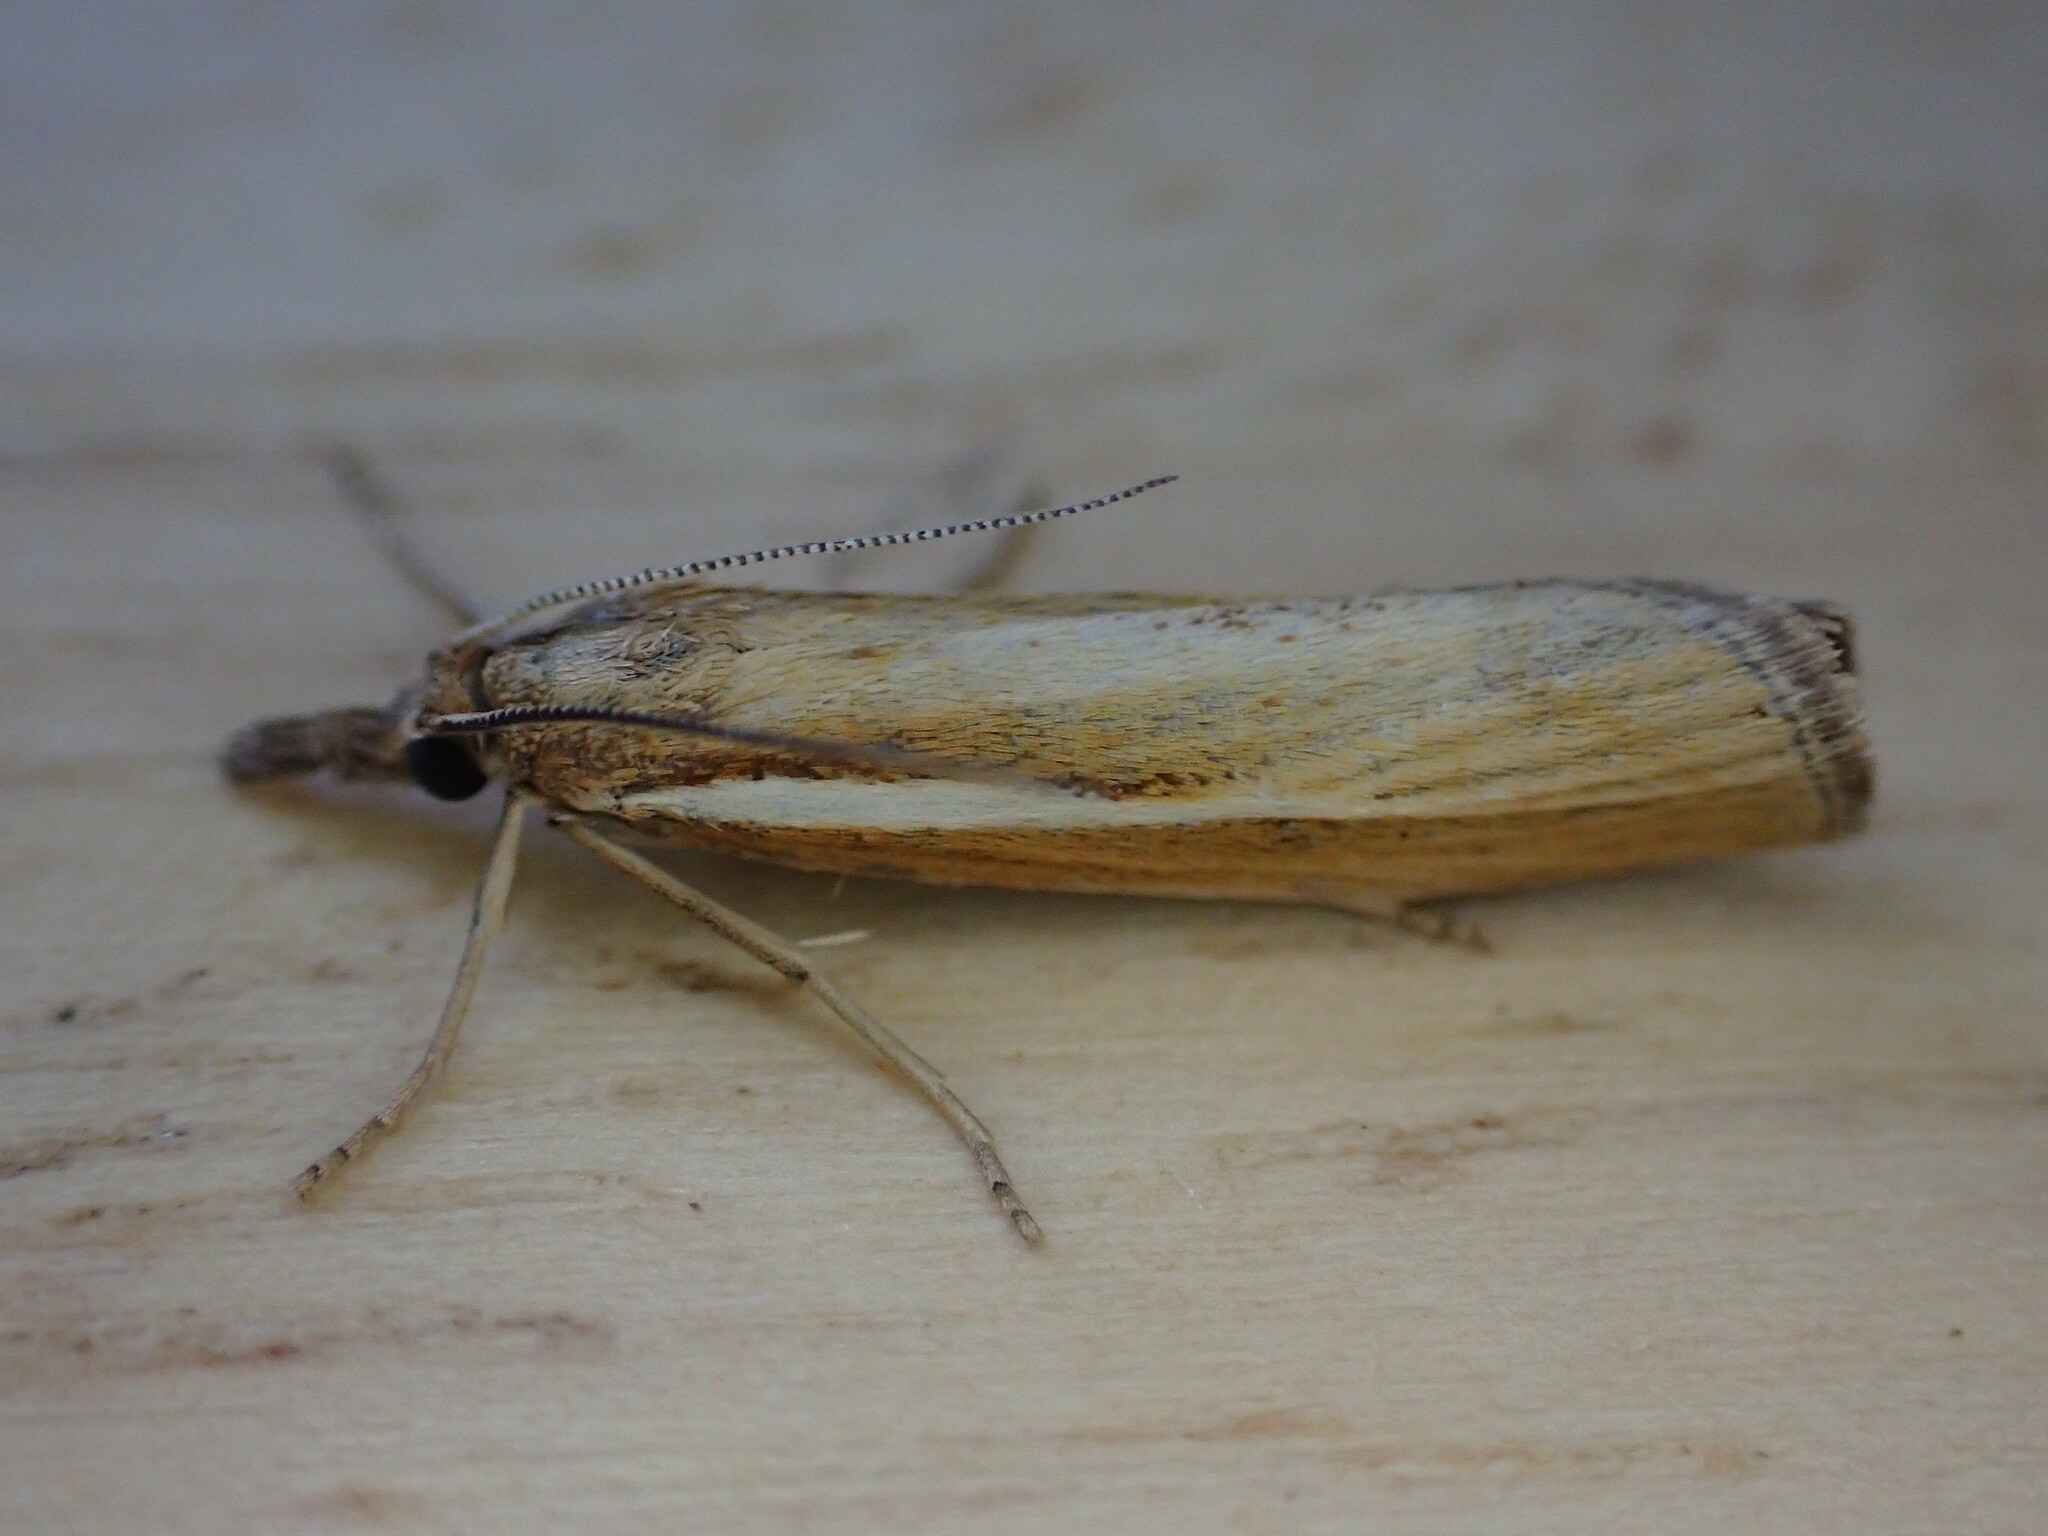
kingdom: Animalia
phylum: Arthropoda
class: Insecta
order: Lepidoptera
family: Crambidae
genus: Agriphila
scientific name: Agriphila tristellus
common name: Common grass-veneer
